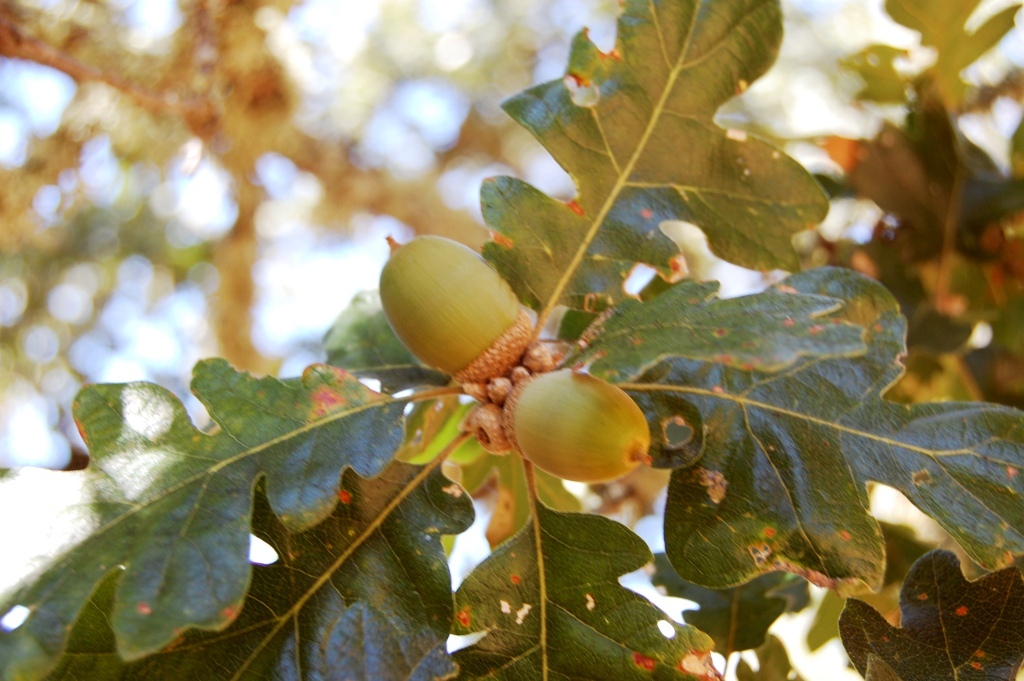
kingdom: Plantae
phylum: Tracheophyta
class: Magnoliopsida
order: Fagales
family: Fagaceae
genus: Quercus
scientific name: Quercus garryana
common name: Garry oak
